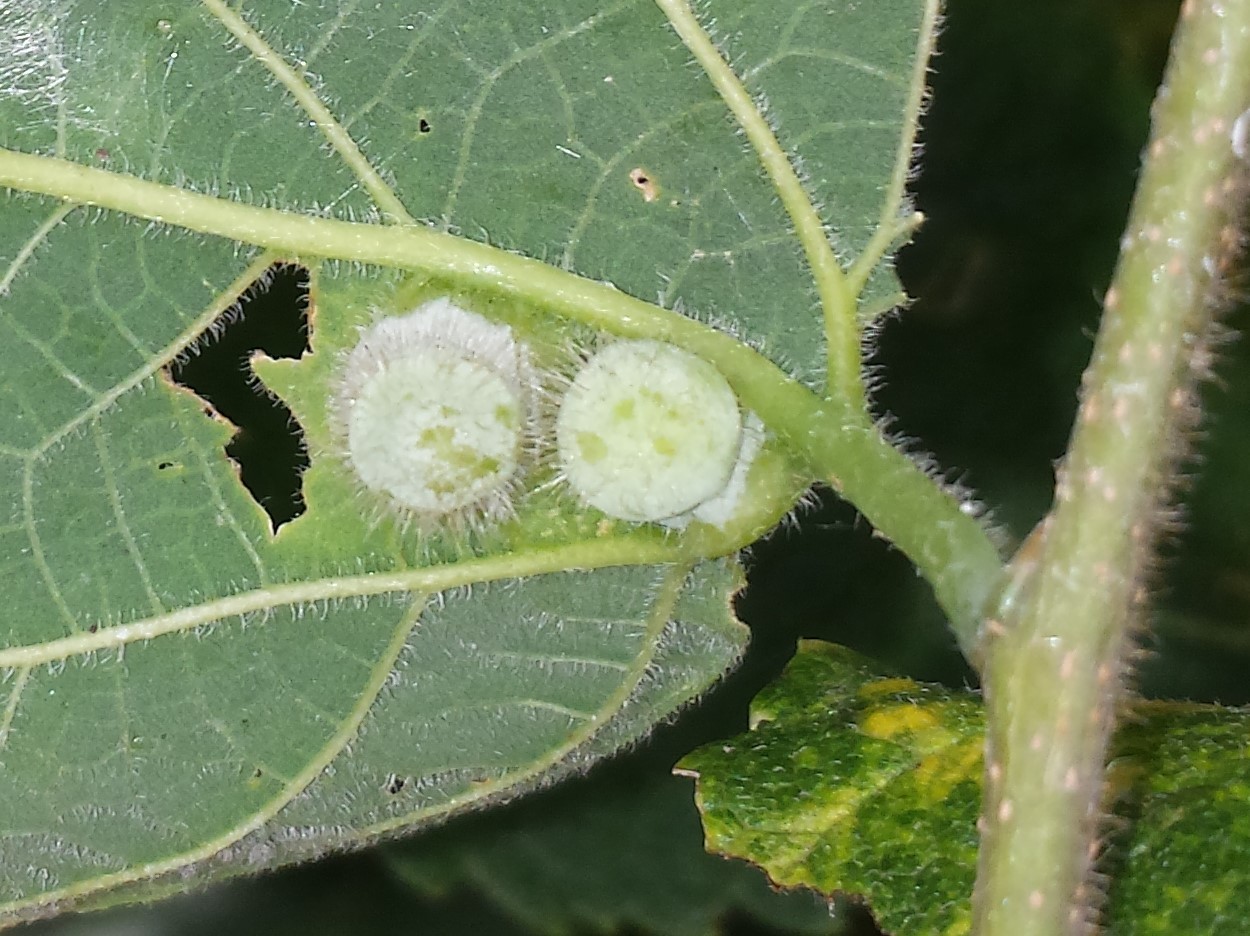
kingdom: Animalia
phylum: Arthropoda
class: Insecta
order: Hemiptera
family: Aphalaridae
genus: Pachypsylla
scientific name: Pachypsylla celtidismamma
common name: Hackberry nipplegall psyllid
